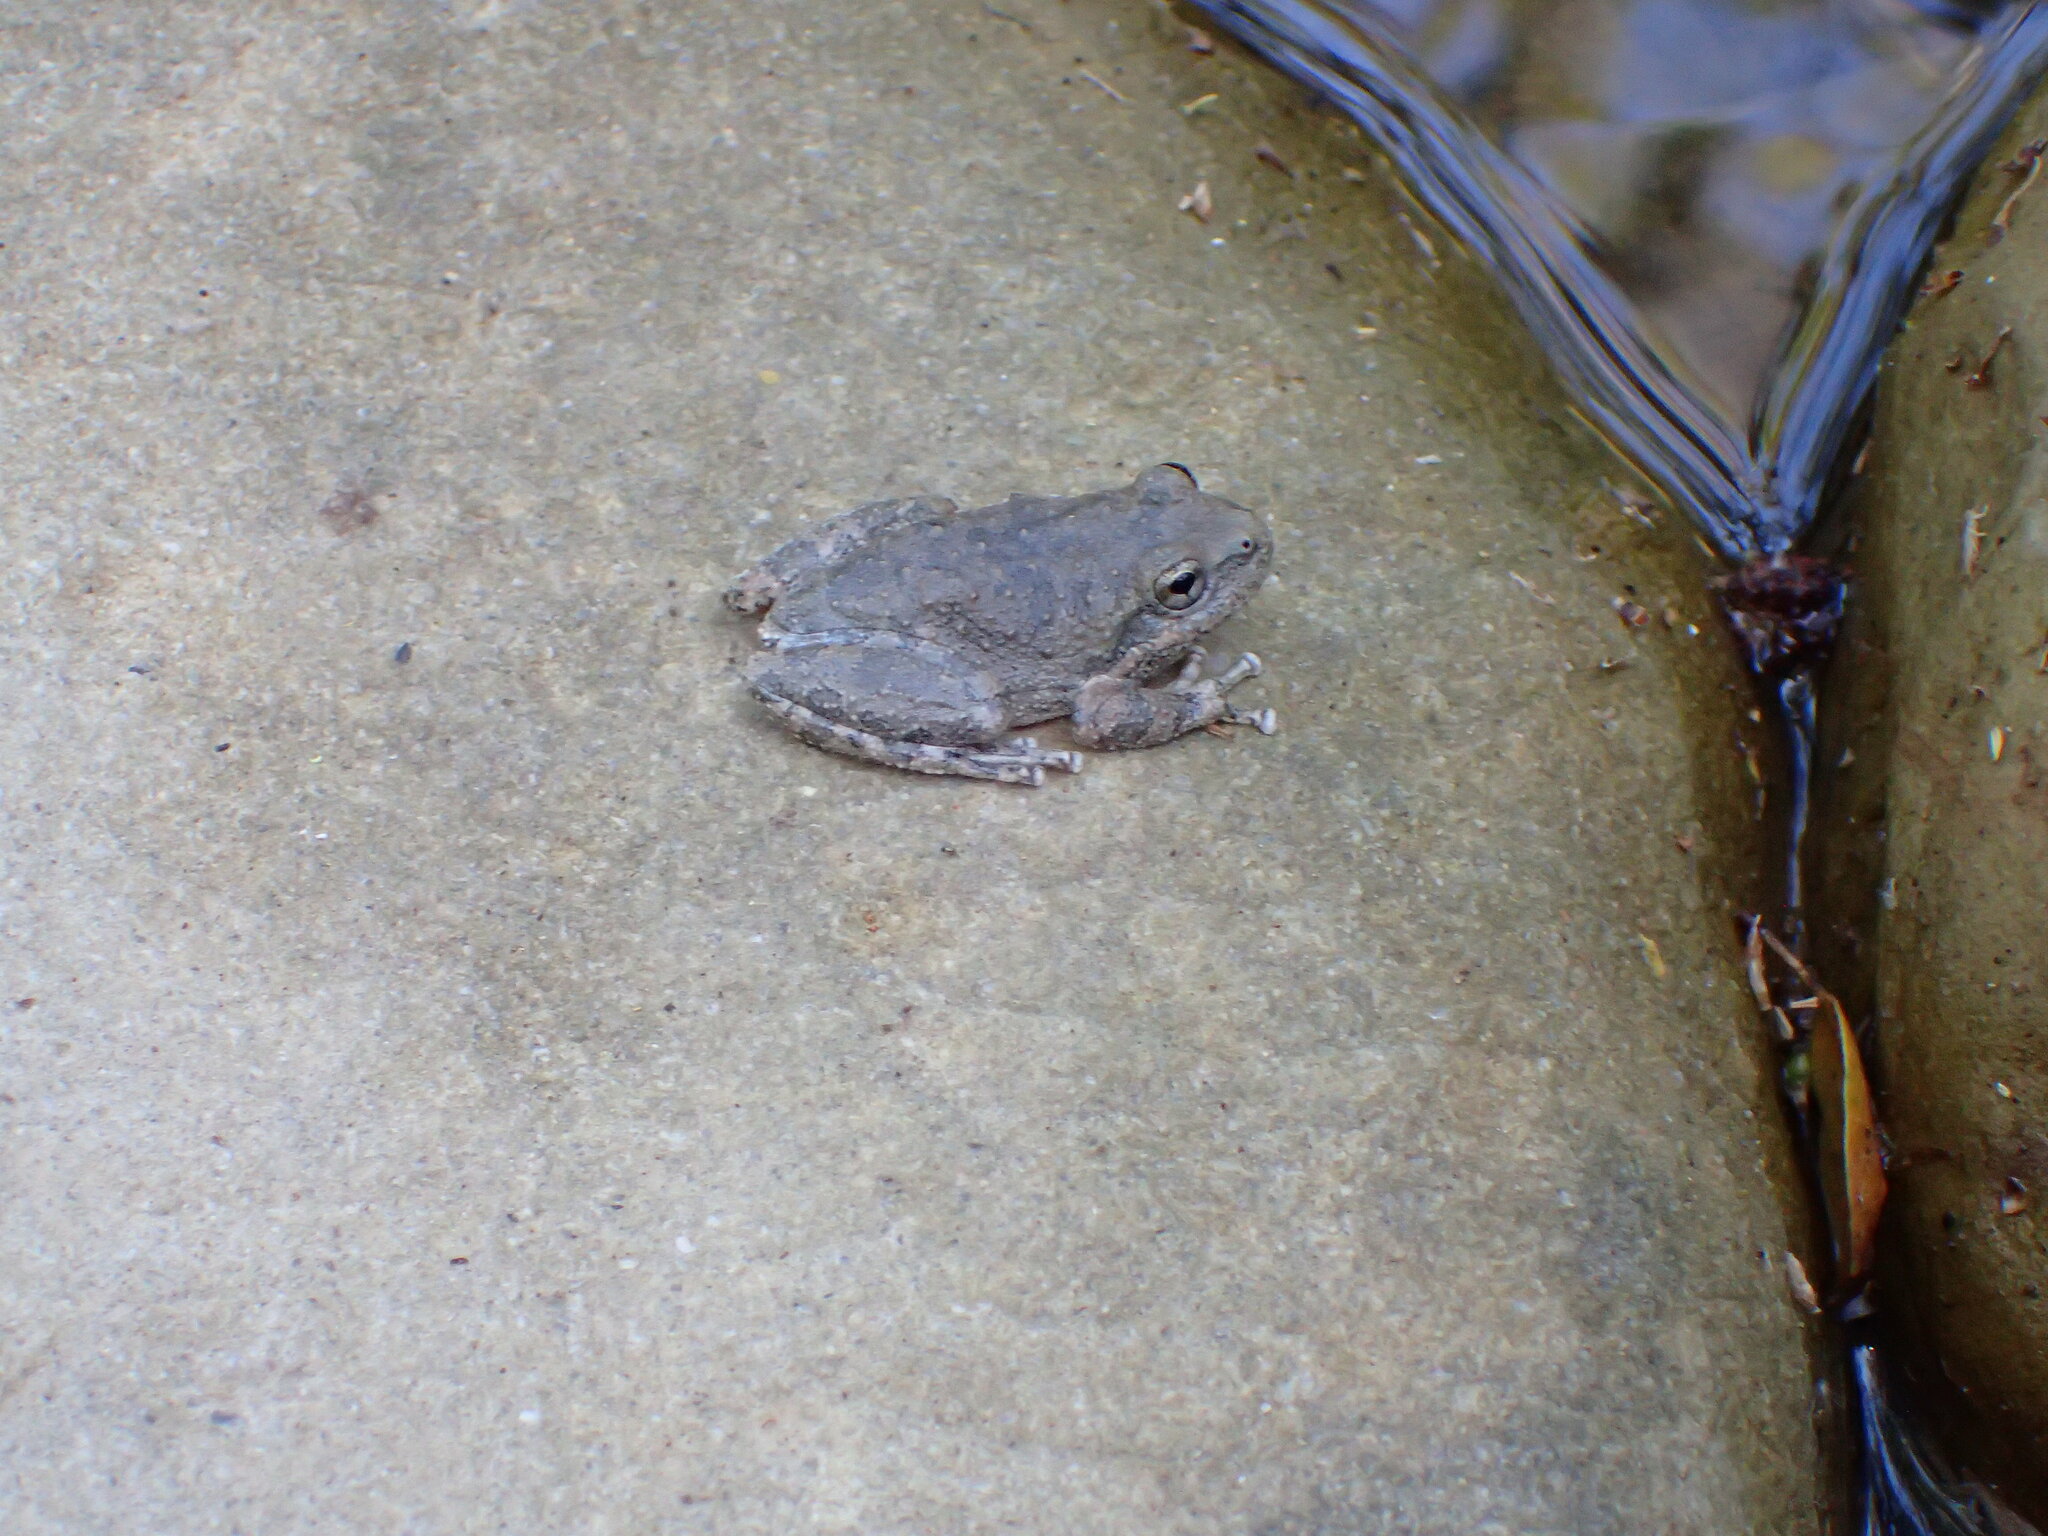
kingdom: Animalia
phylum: Chordata
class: Amphibia
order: Anura
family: Hylidae
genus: Pseudacris
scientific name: Pseudacris cadaverina
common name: California chorus frog
